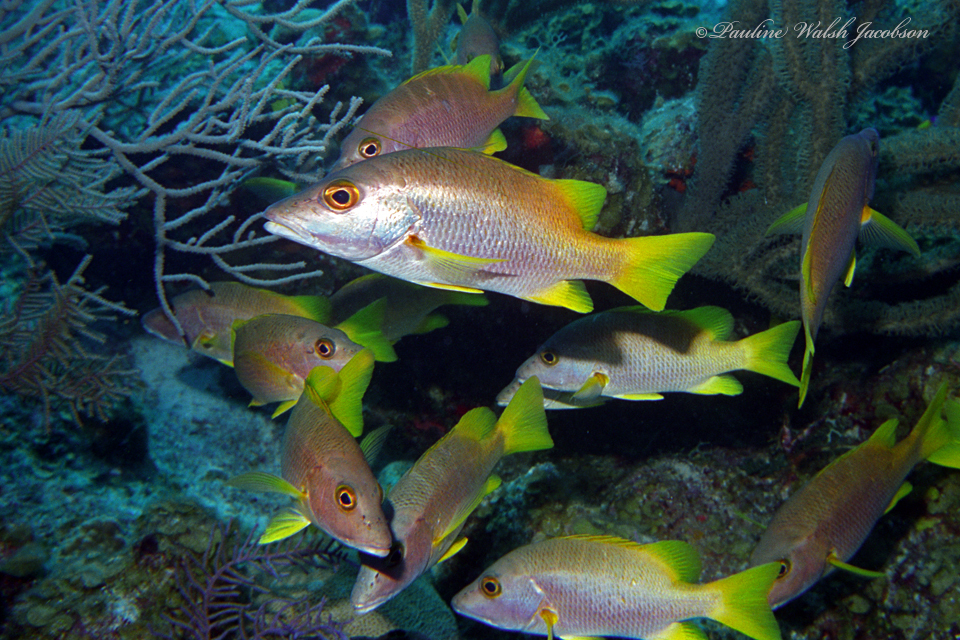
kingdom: Animalia
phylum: Chordata
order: Perciformes
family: Lutjanidae
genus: Lutjanus
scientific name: Lutjanus apodus
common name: Schoolmaster
